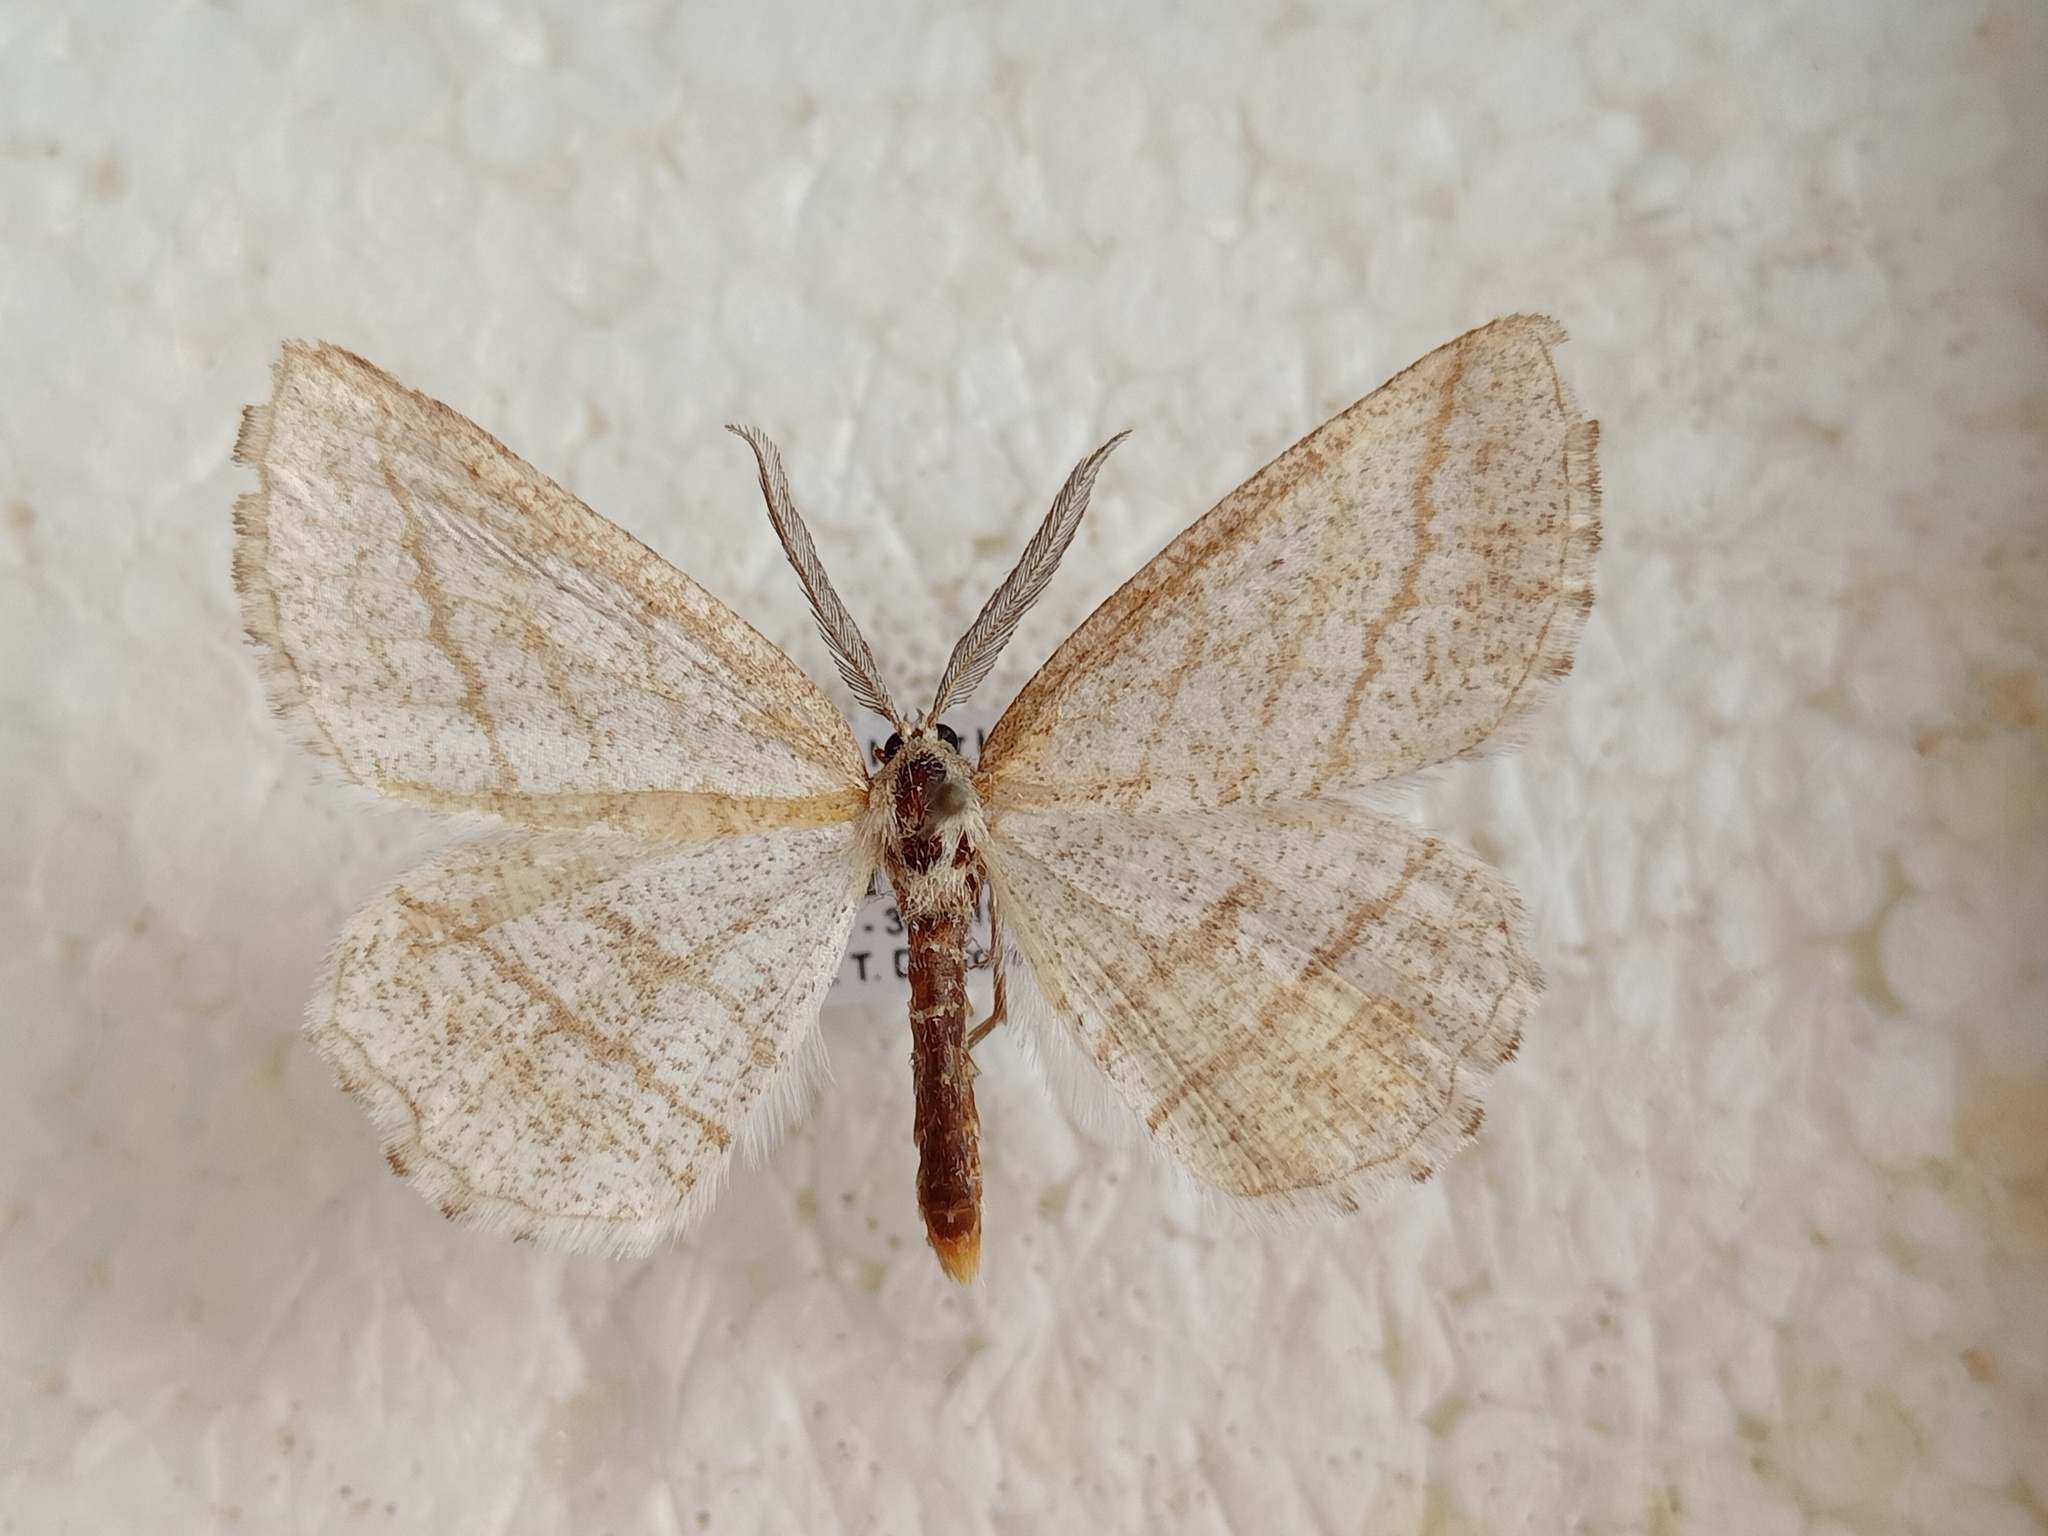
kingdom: Animalia
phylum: Arthropoda
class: Insecta
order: Lepidoptera
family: Geometridae
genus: Perconia
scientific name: Perconia strigillaria
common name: Grass wave
